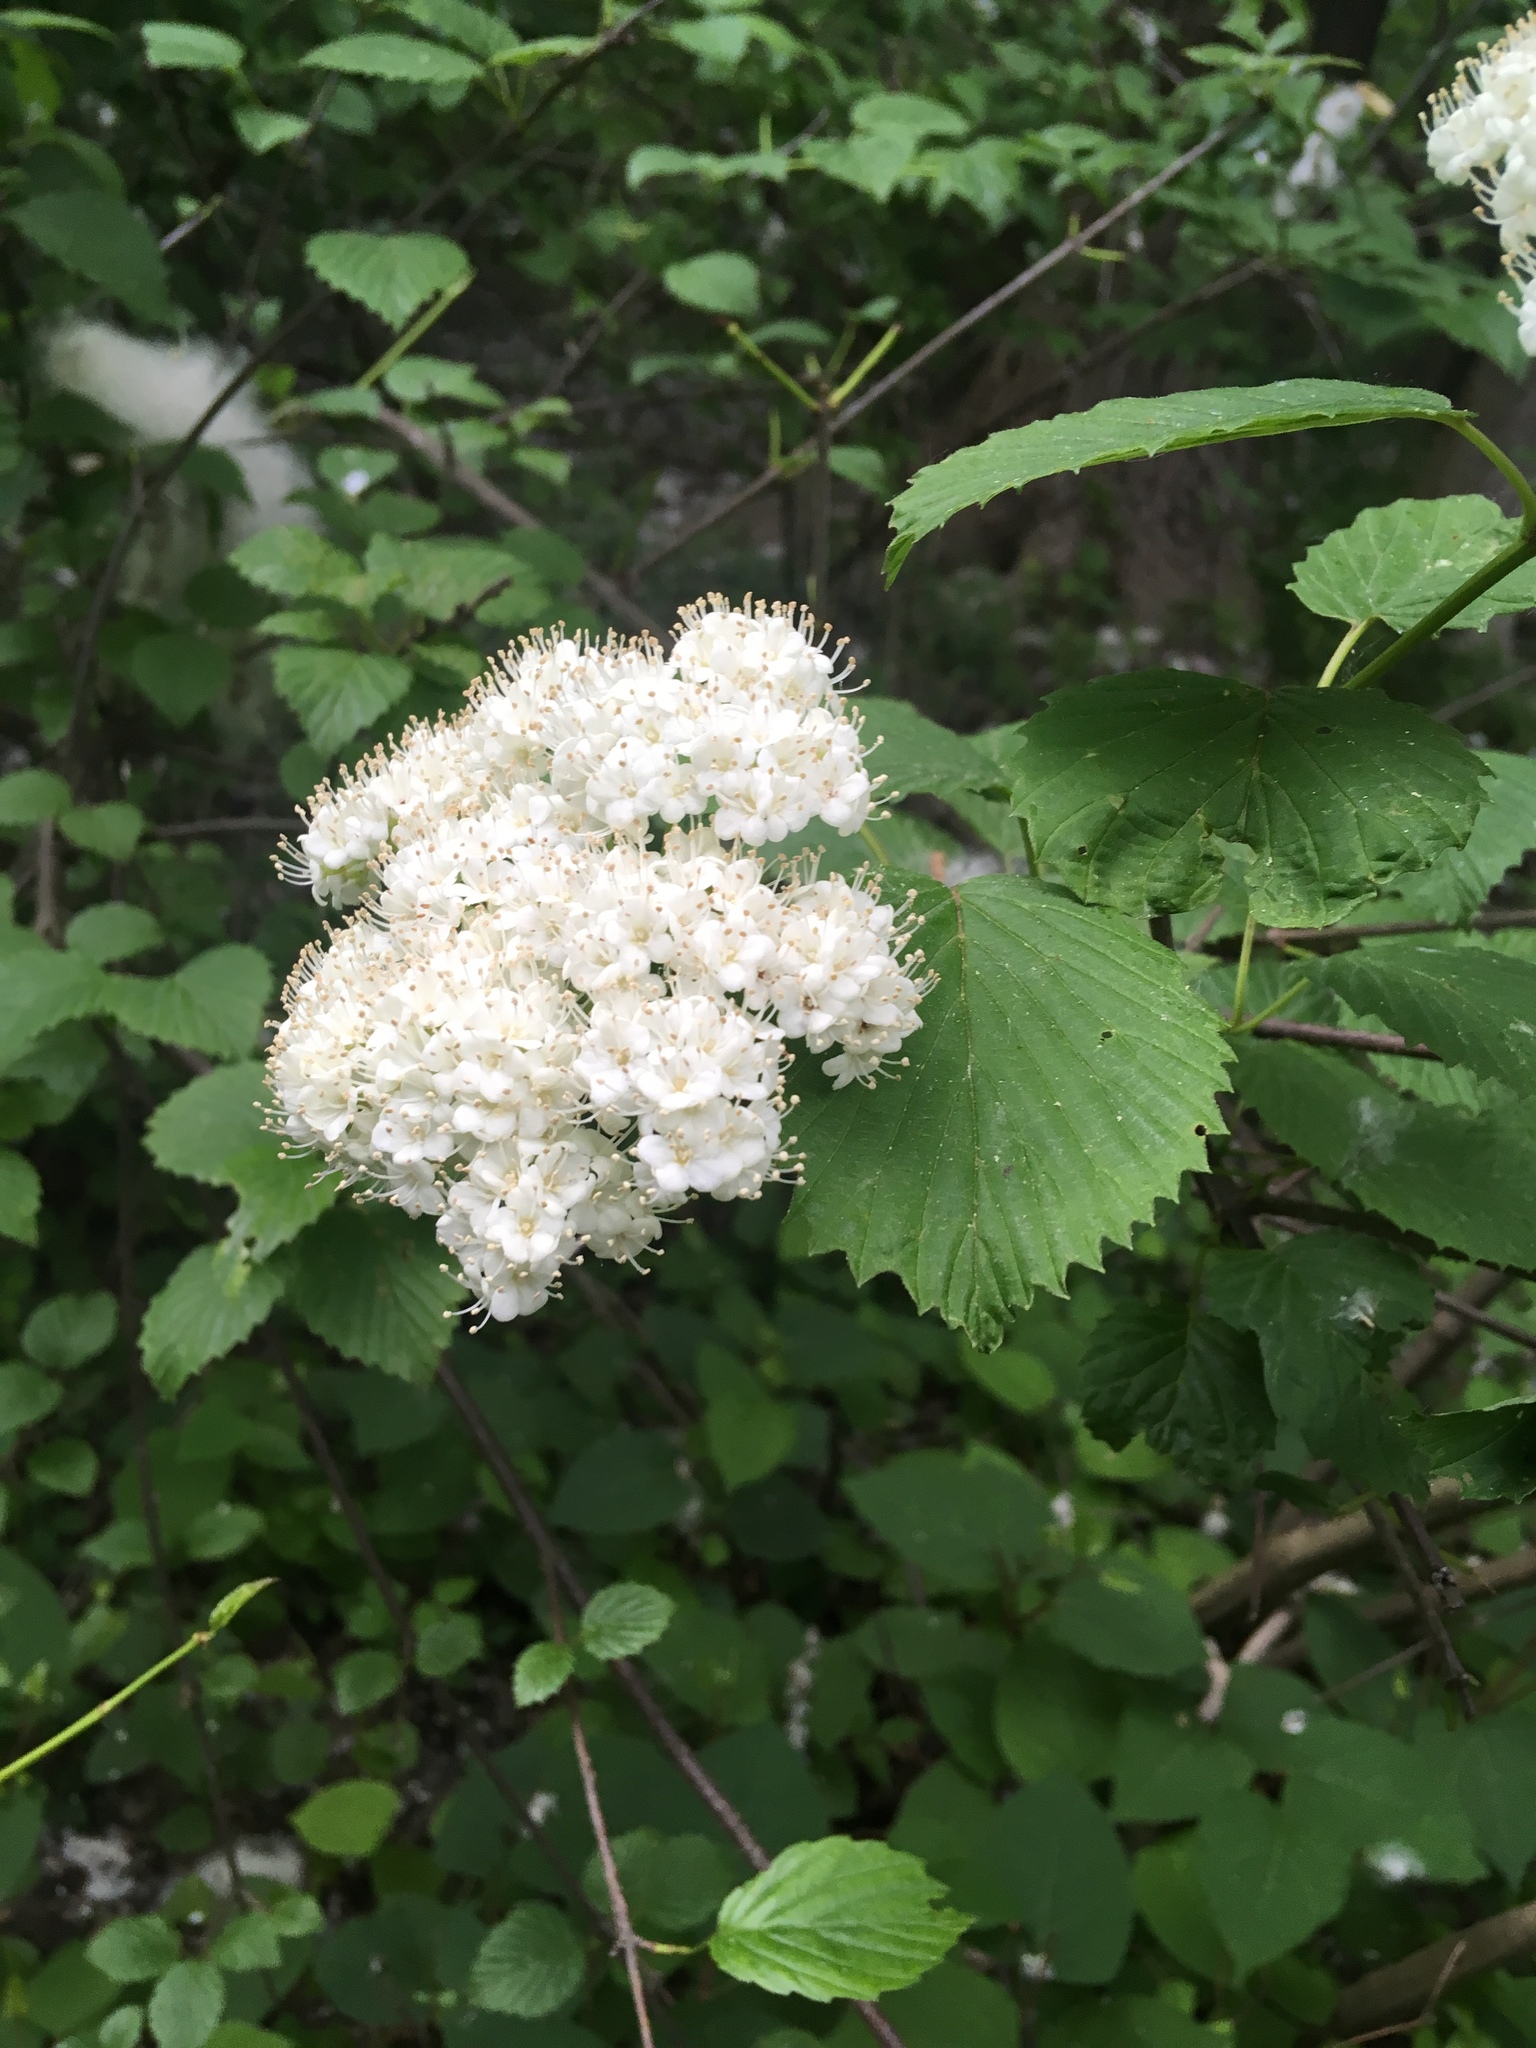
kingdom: Plantae
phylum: Tracheophyta
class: Magnoliopsida
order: Dipsacales
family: Viburnaceae
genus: Viburnum
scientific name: Viburnum dentatum
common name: Arrow-wood
